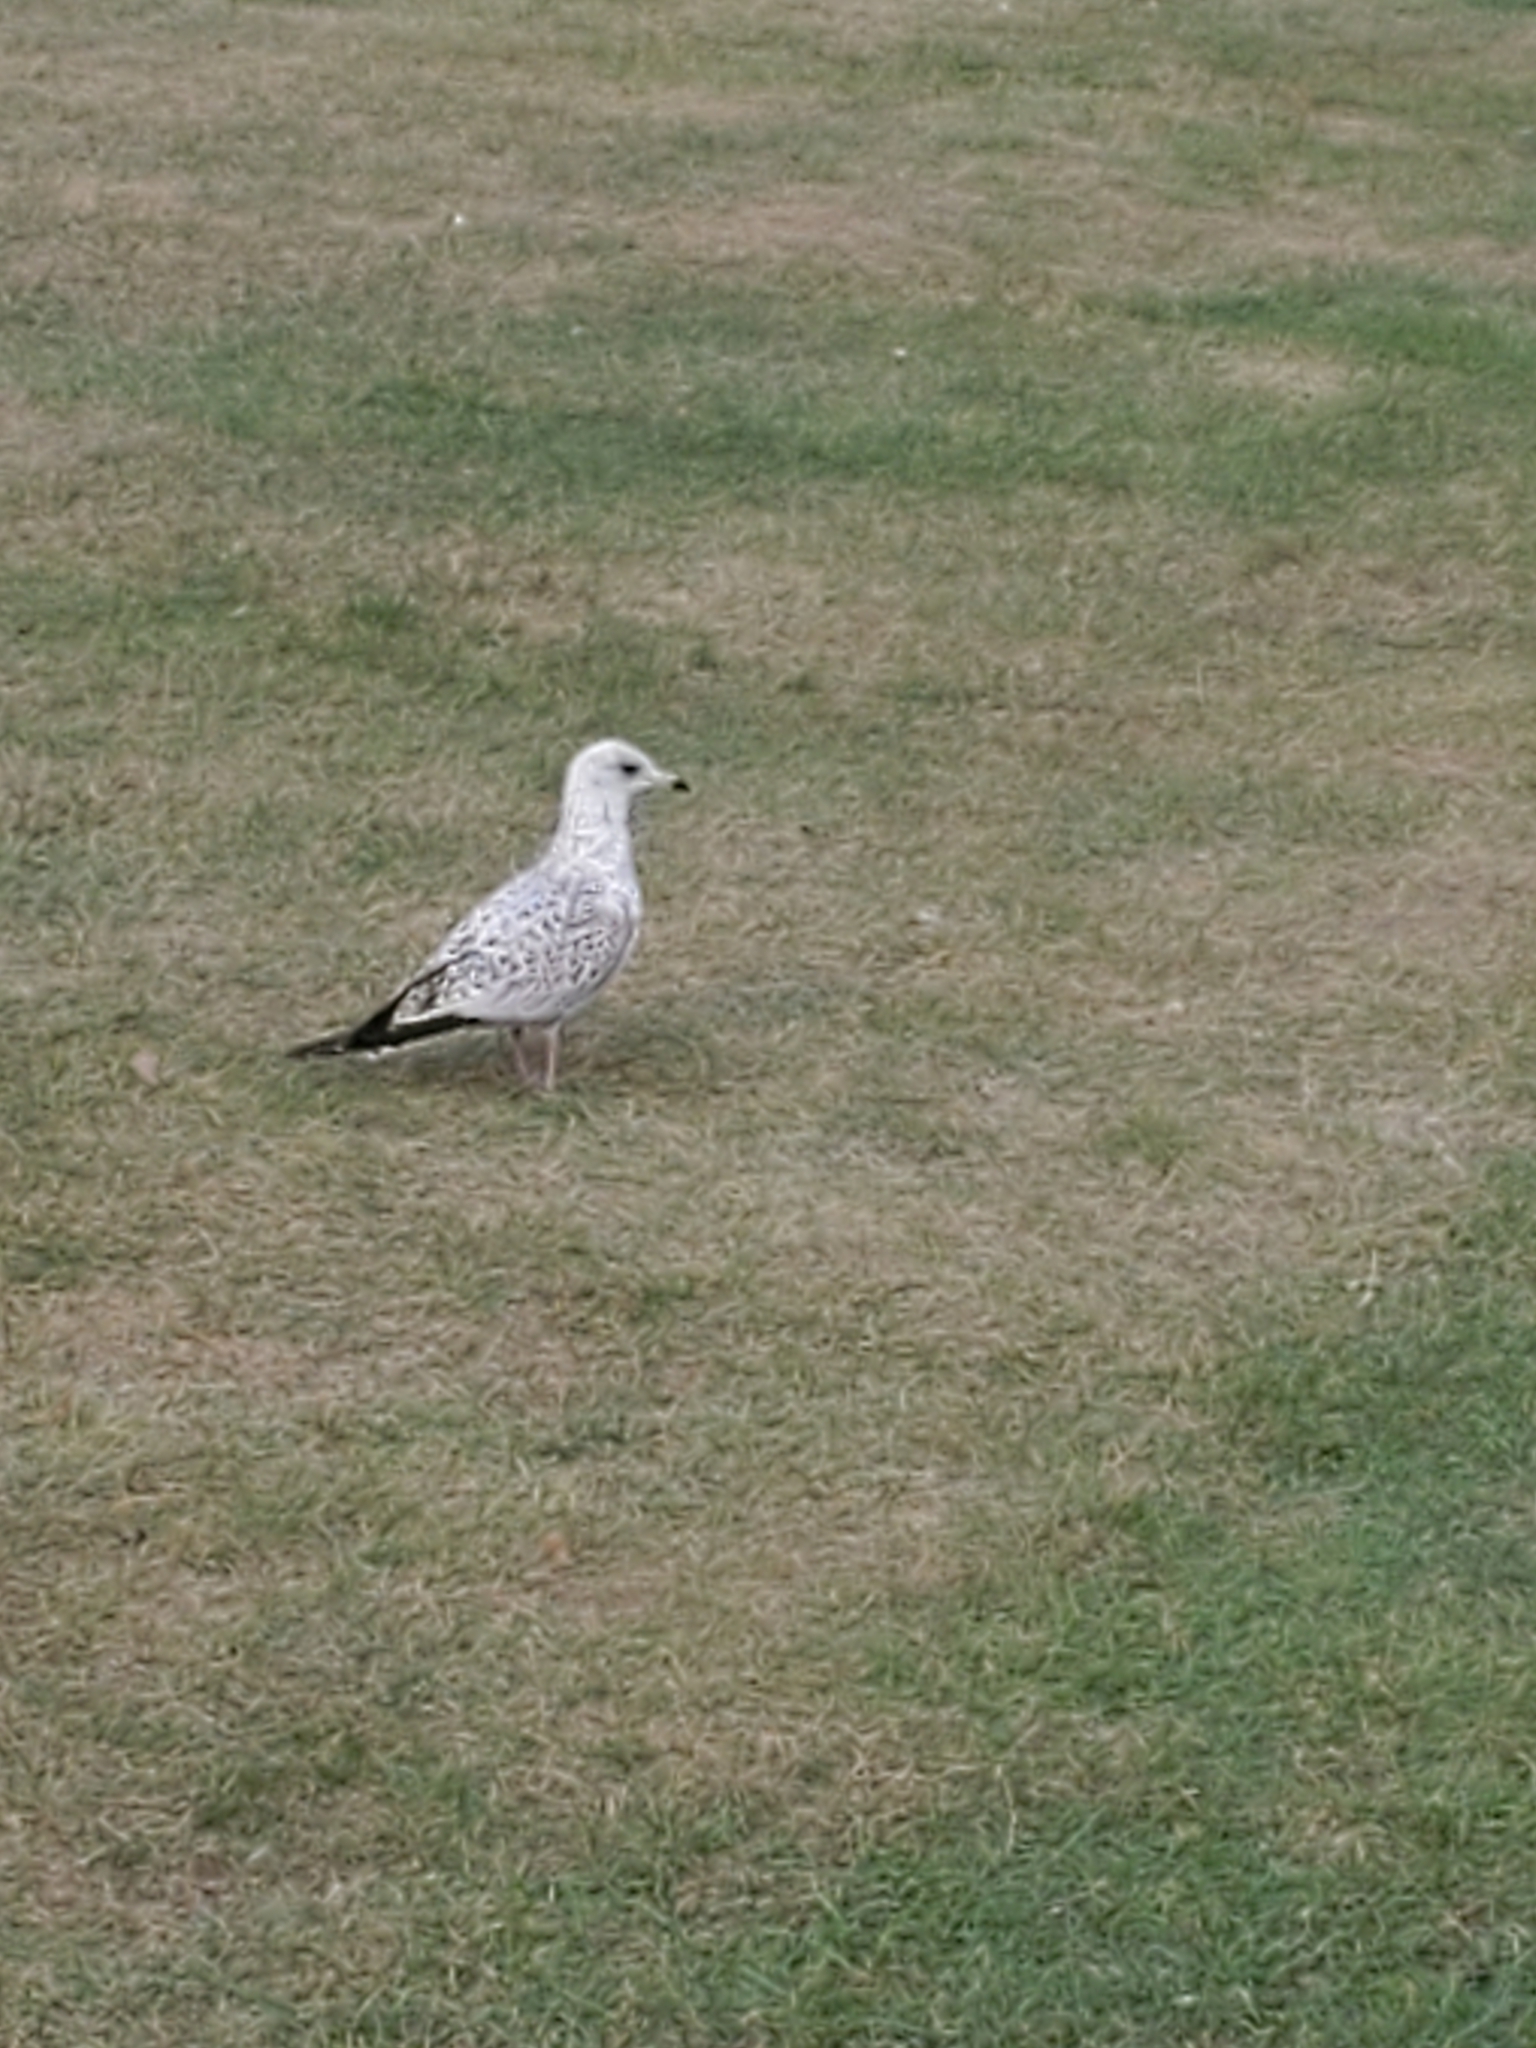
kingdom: Animalia
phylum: Chordata
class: Aves
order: Charadriiformes
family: Laridae
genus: Larus
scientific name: Larus delawarensis
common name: Ring-billed gull
